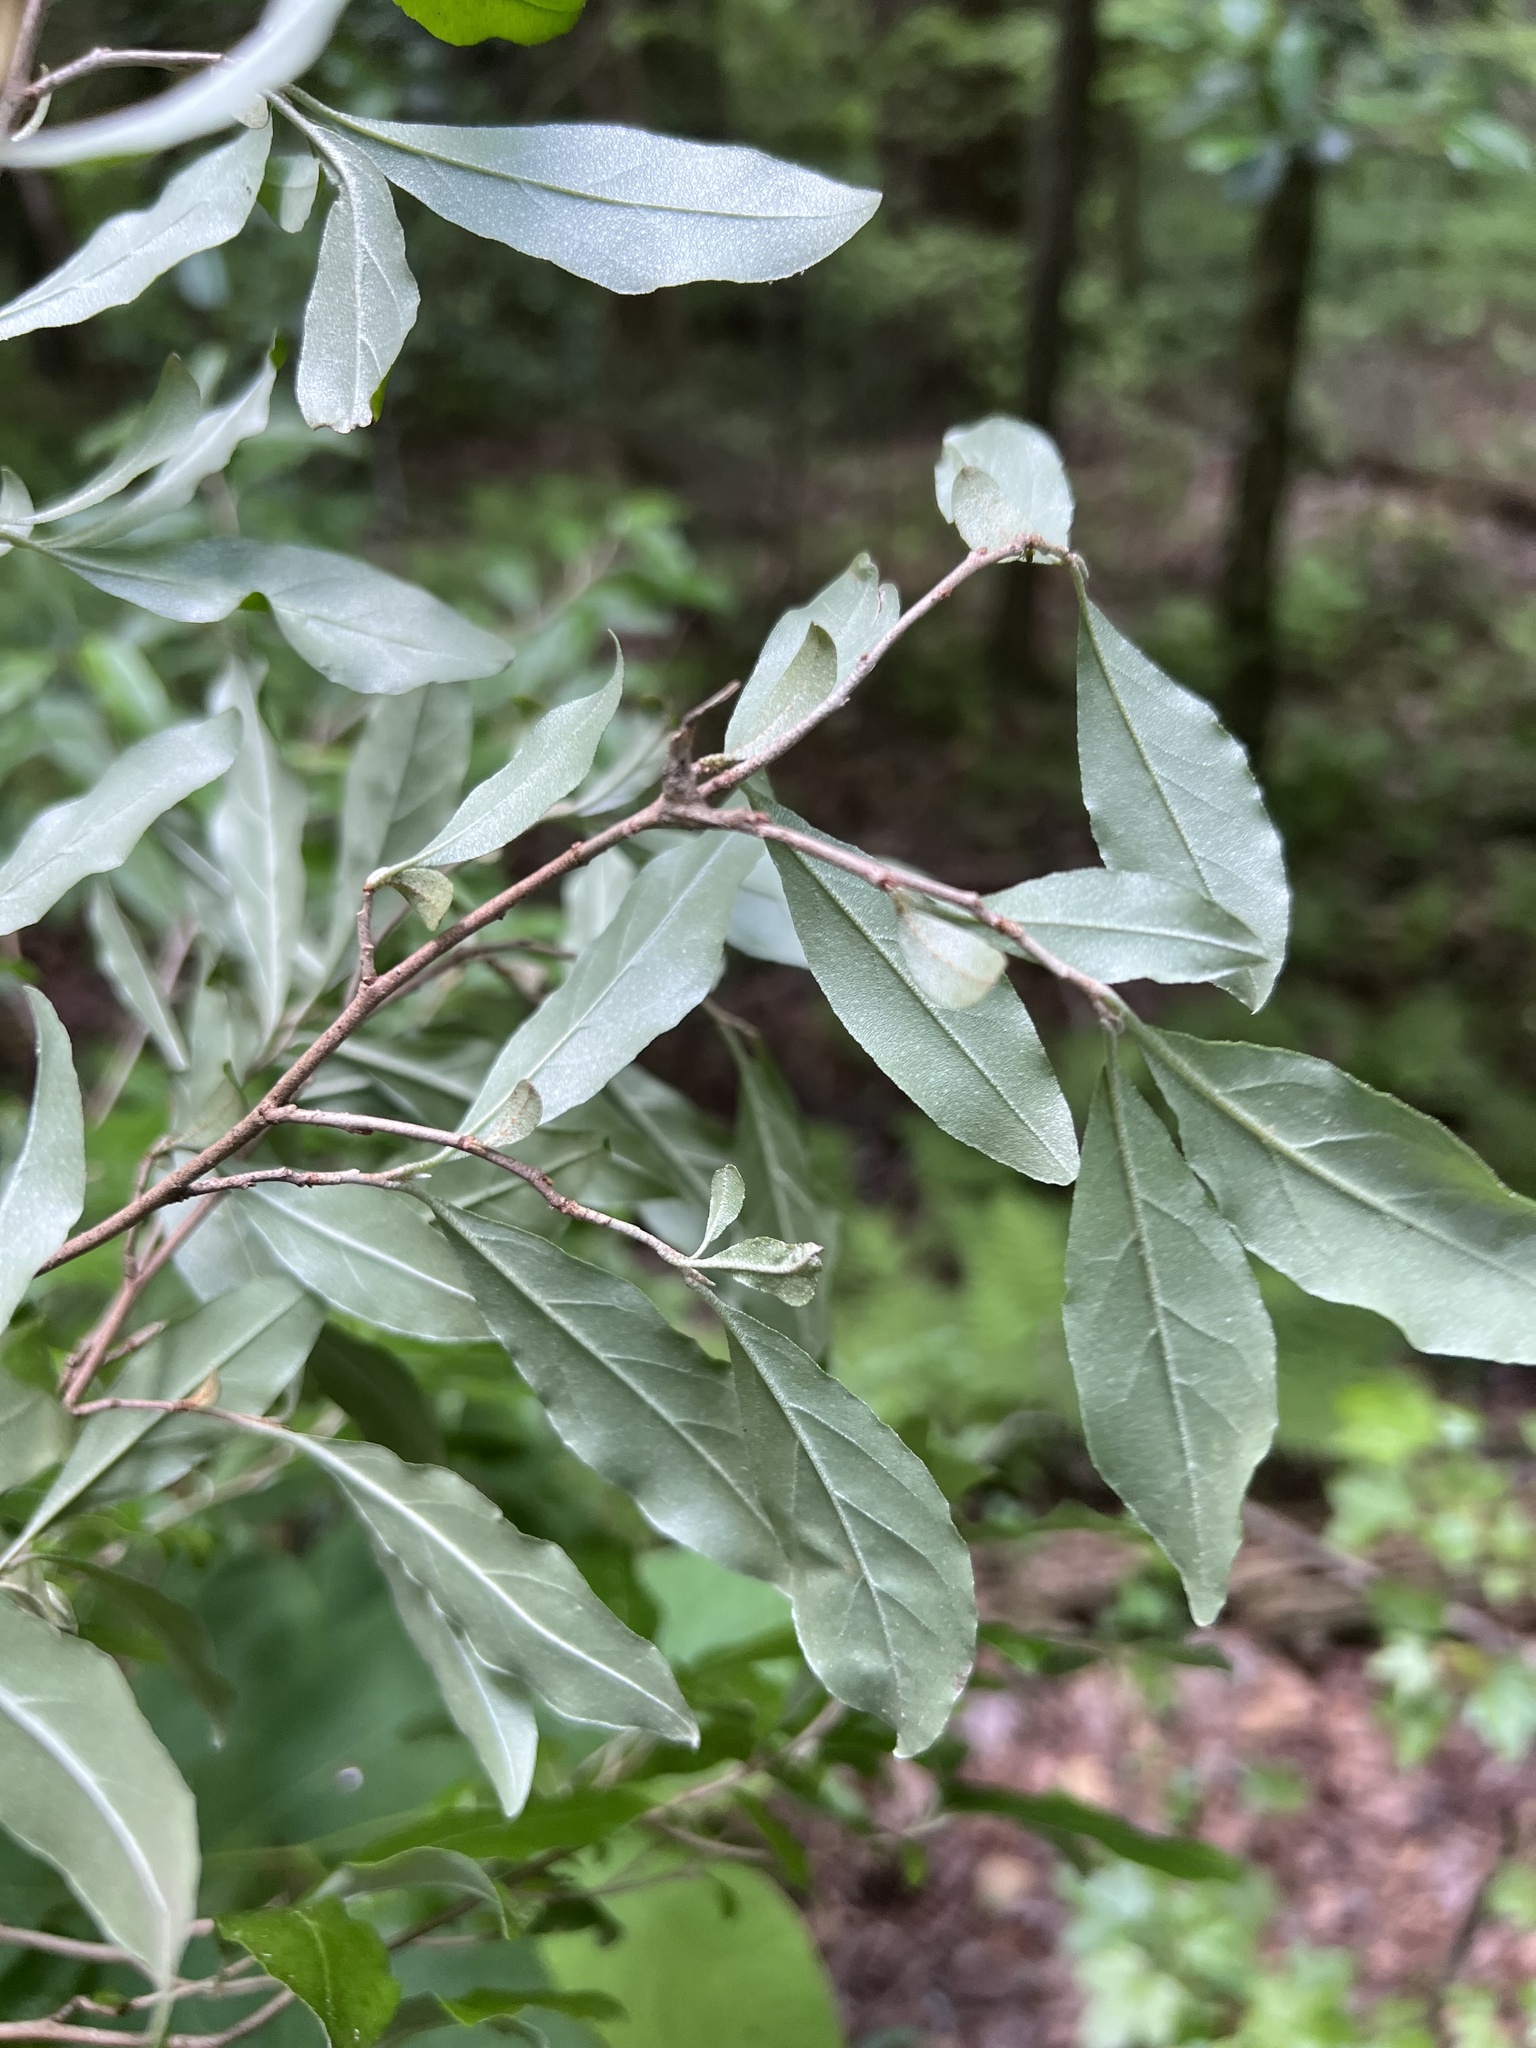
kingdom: Plantae
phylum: Tracheophyta
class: Magnoliopsida
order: Rosales
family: Elaeagnaceae
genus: Elaeagnus
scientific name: Elaeagnus umbellata
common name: Autumn olive
